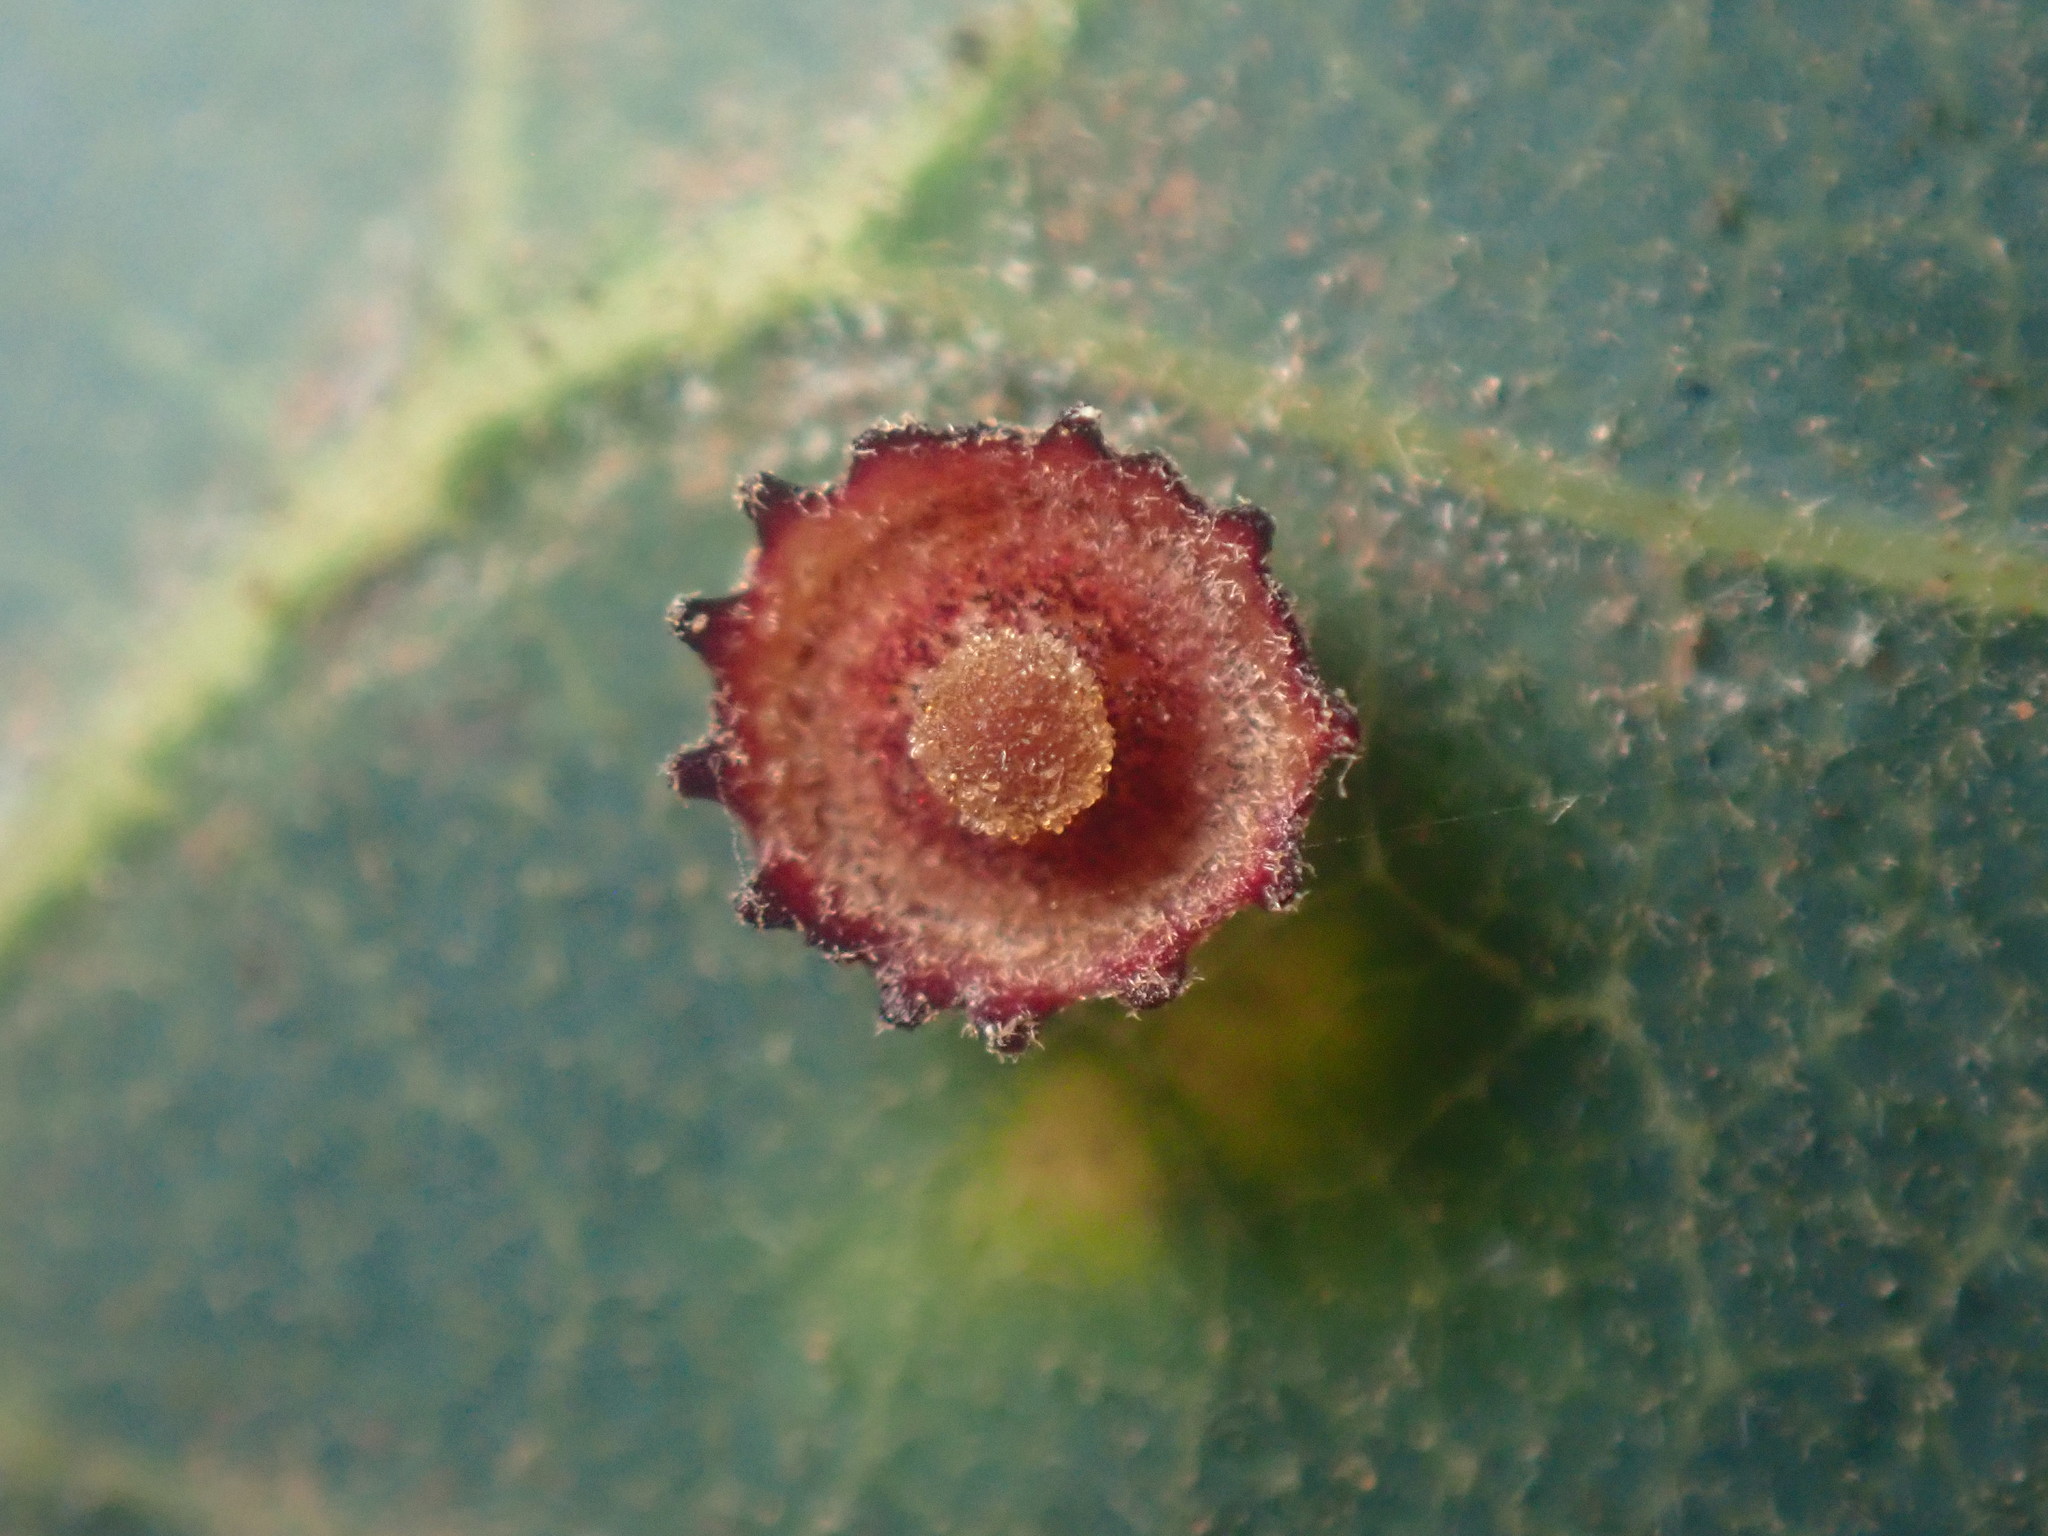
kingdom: Animalia
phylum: Arthropoda
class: Insecta
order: Hymenoptera
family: Cynipidae
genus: Andricus
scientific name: Andricus
